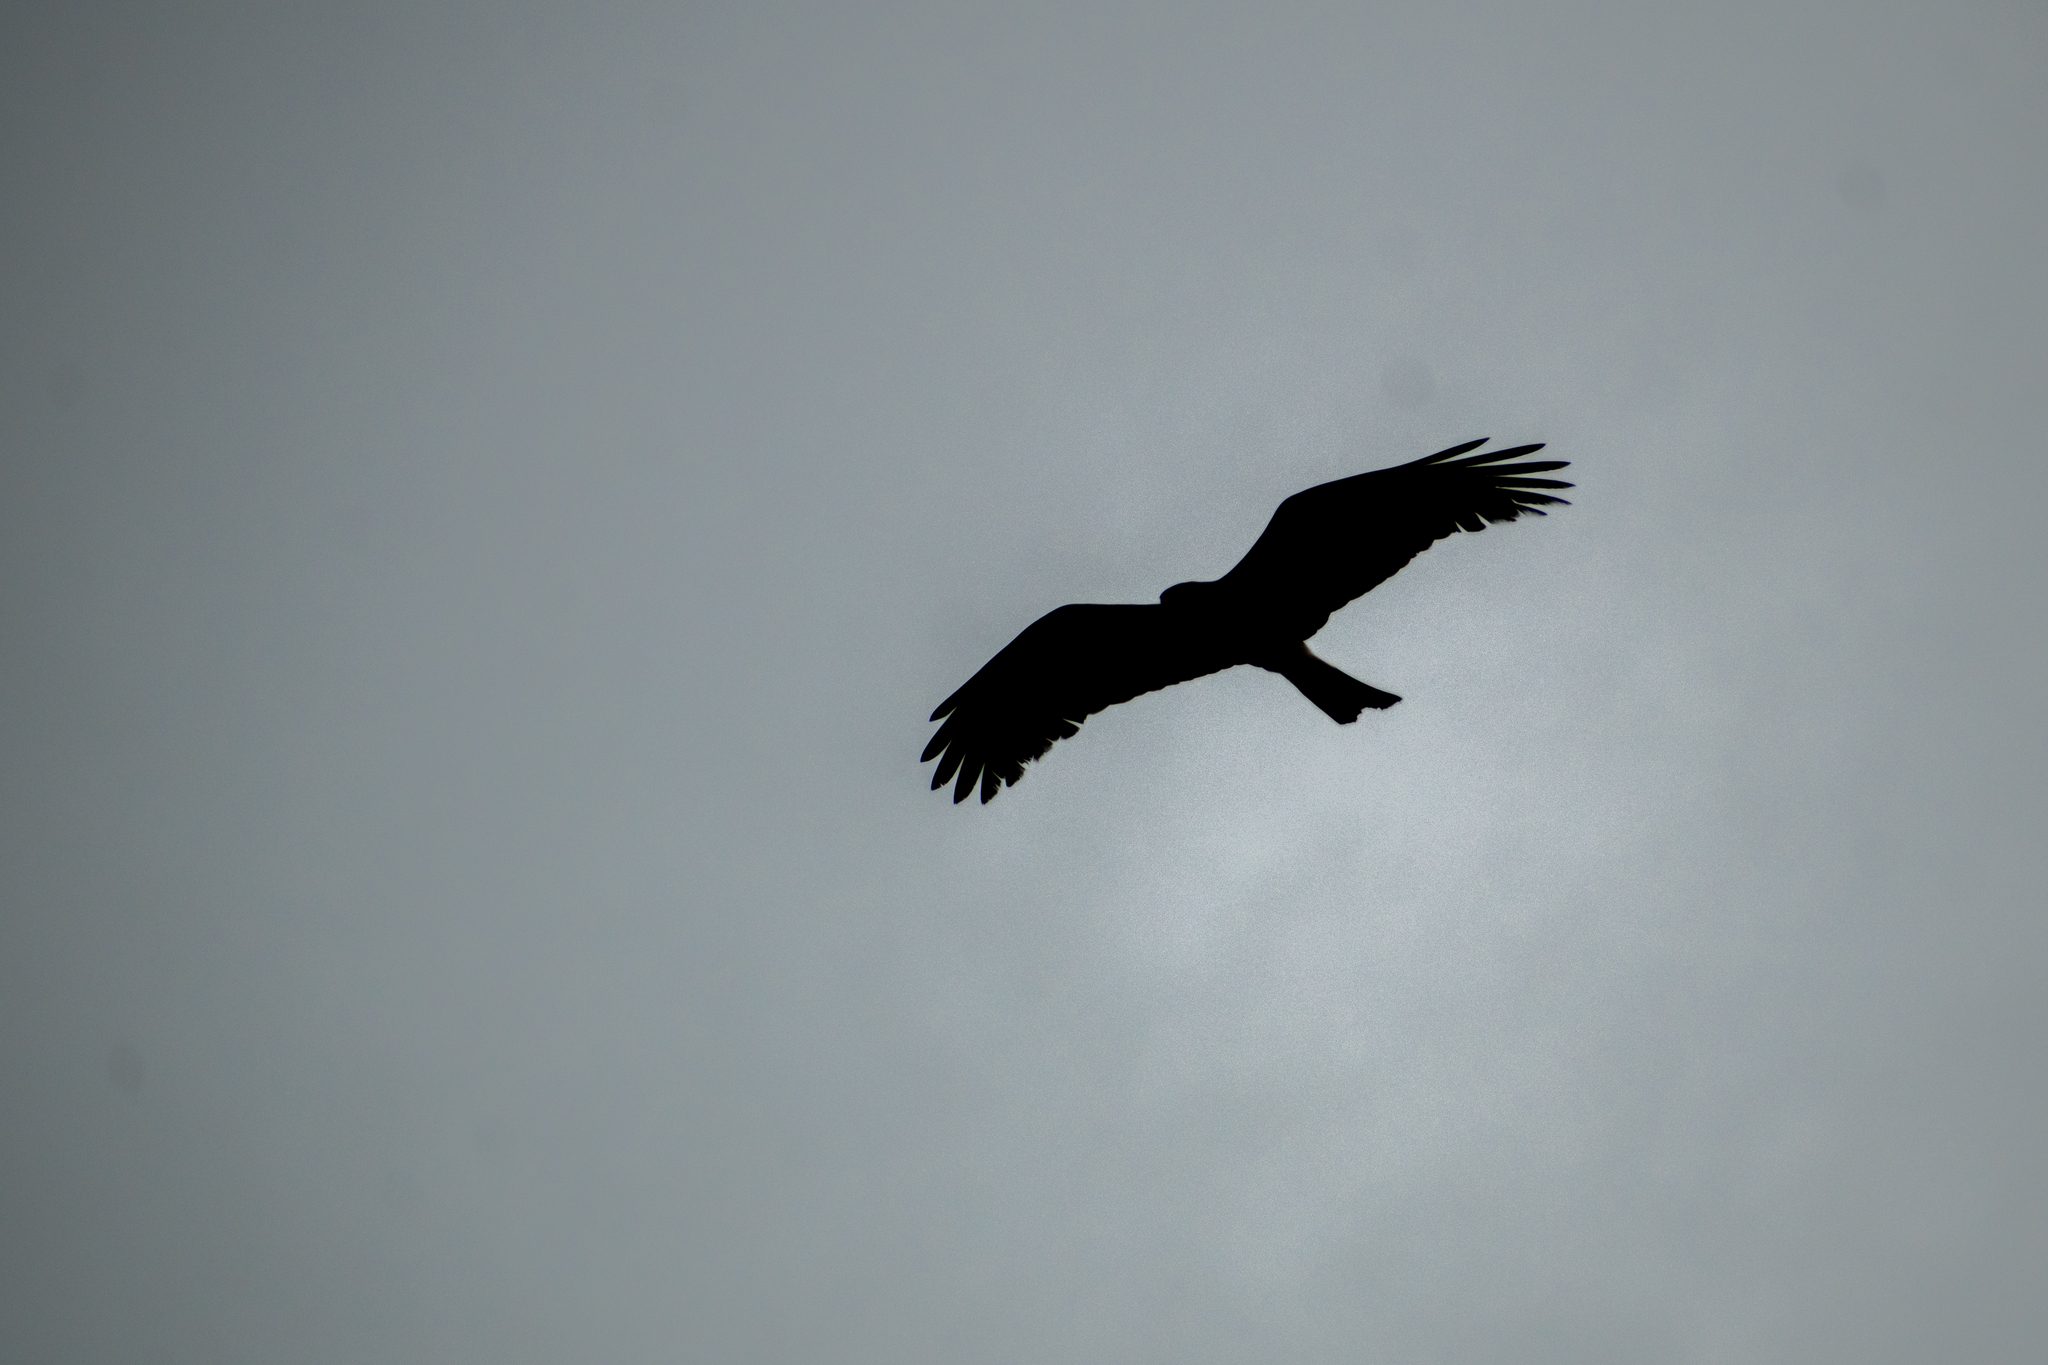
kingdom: Animalia
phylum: Chordata
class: Aves
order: Accipitriformes
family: Accipitridae
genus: Rostrhamus
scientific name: Rostrhamus sociabilis
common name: Snail kite
